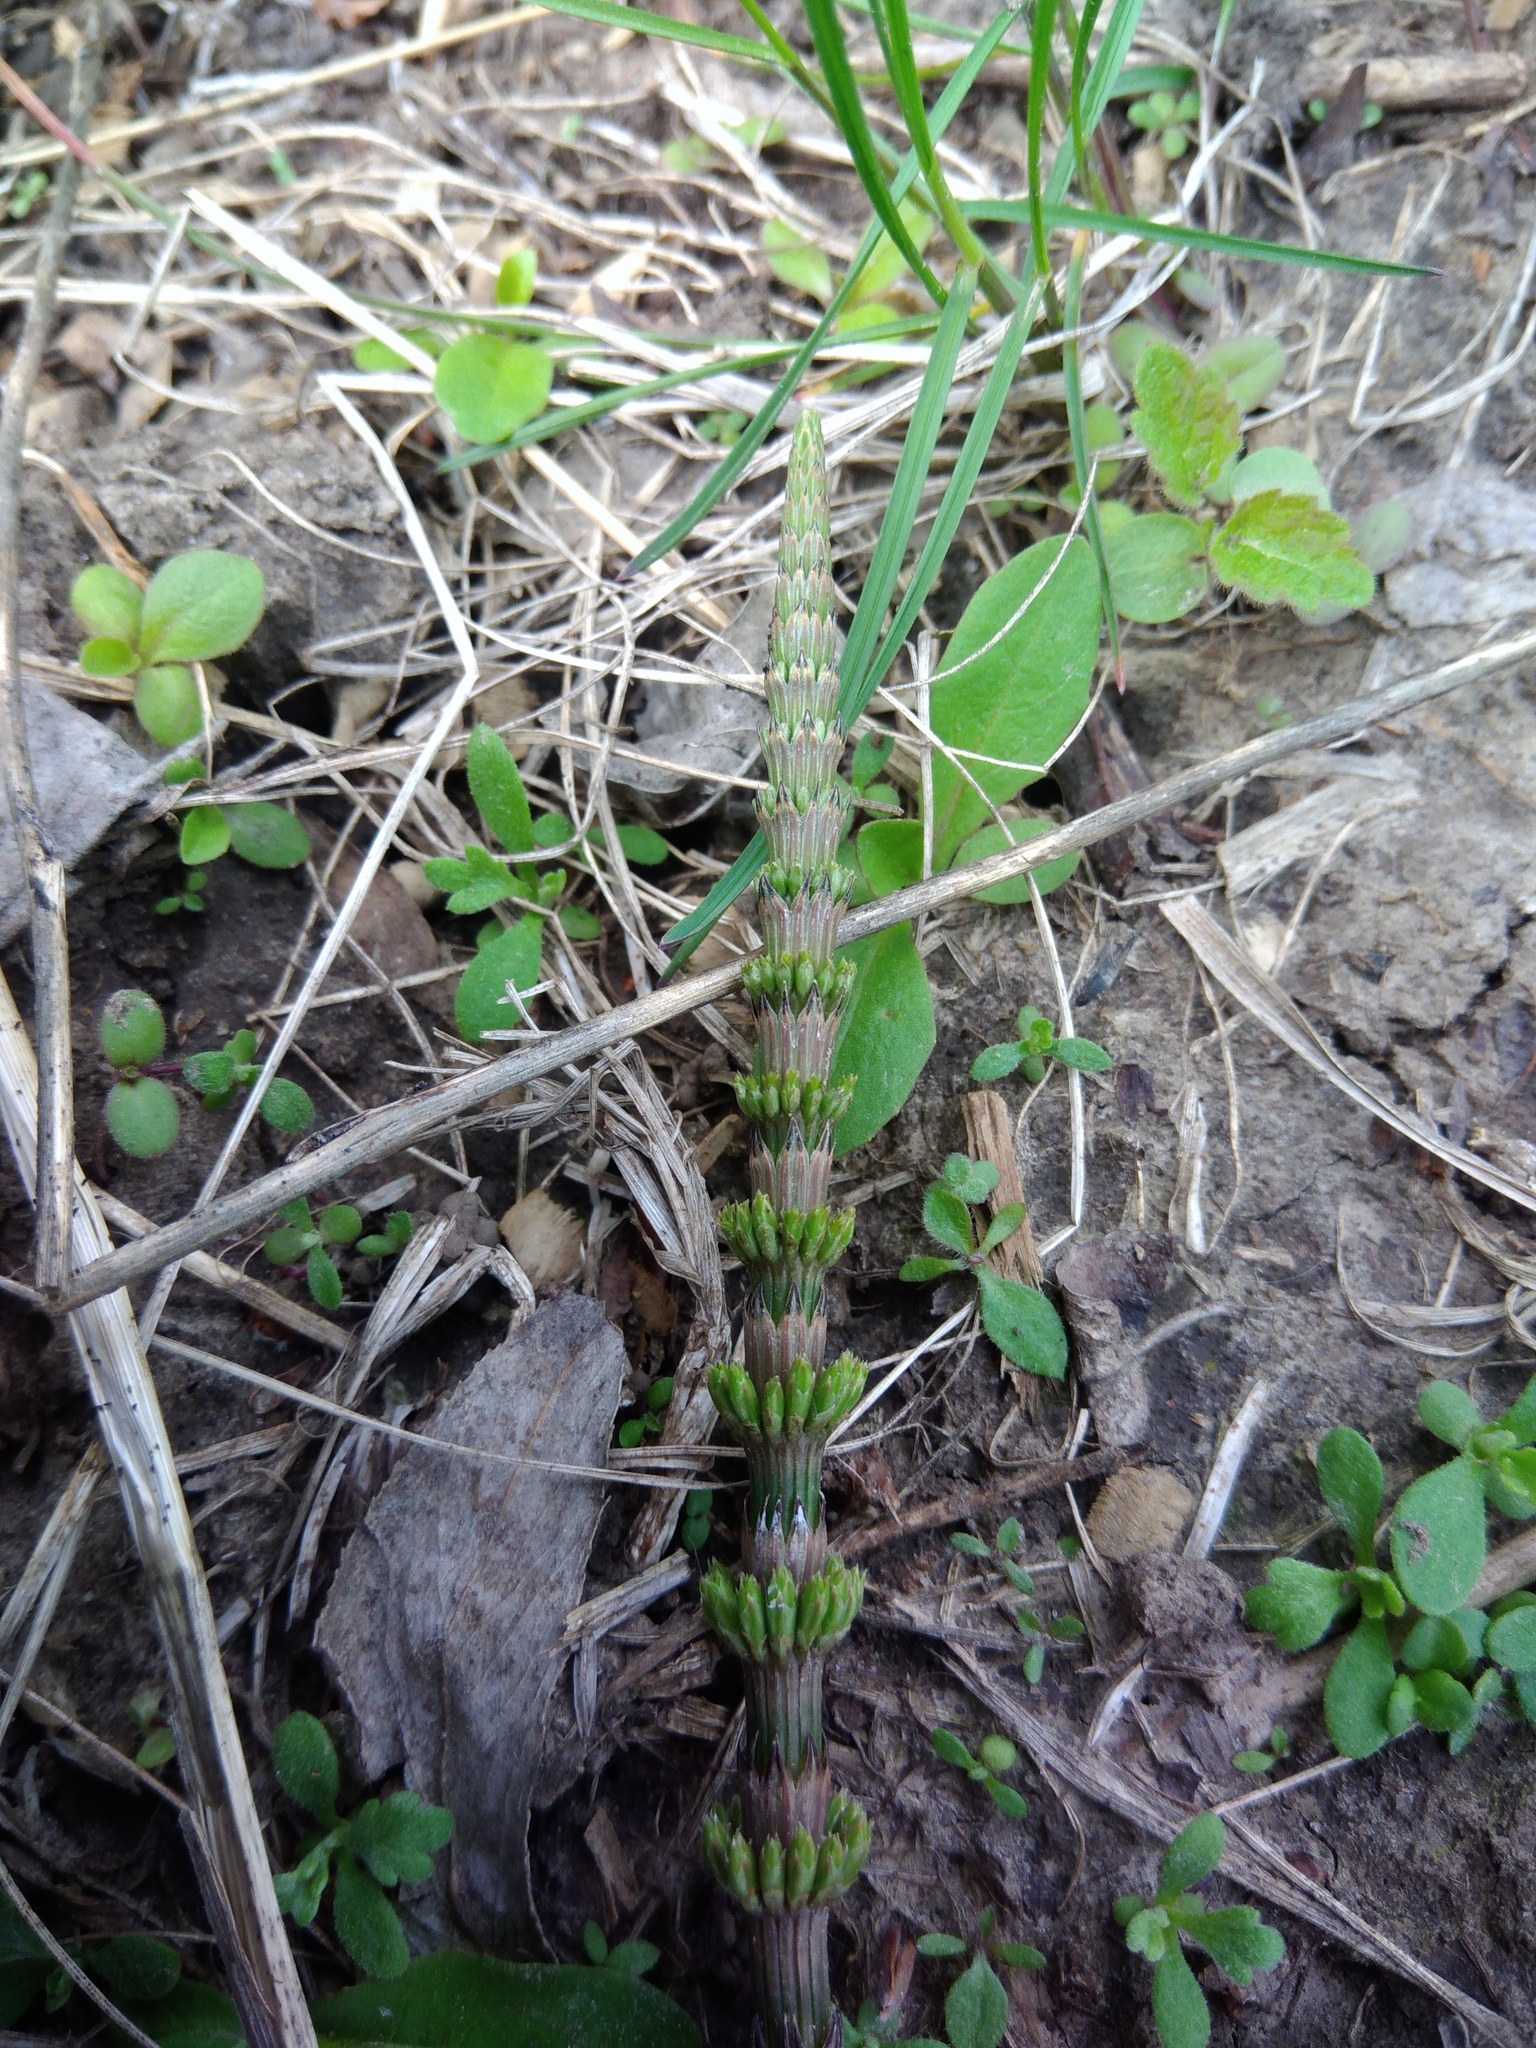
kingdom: Plantae
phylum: Tracheophyta
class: Polypodiopsida
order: Equisetales
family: Equisetaceae
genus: Equisetum
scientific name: Equisetum arvense
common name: Field horsetail
